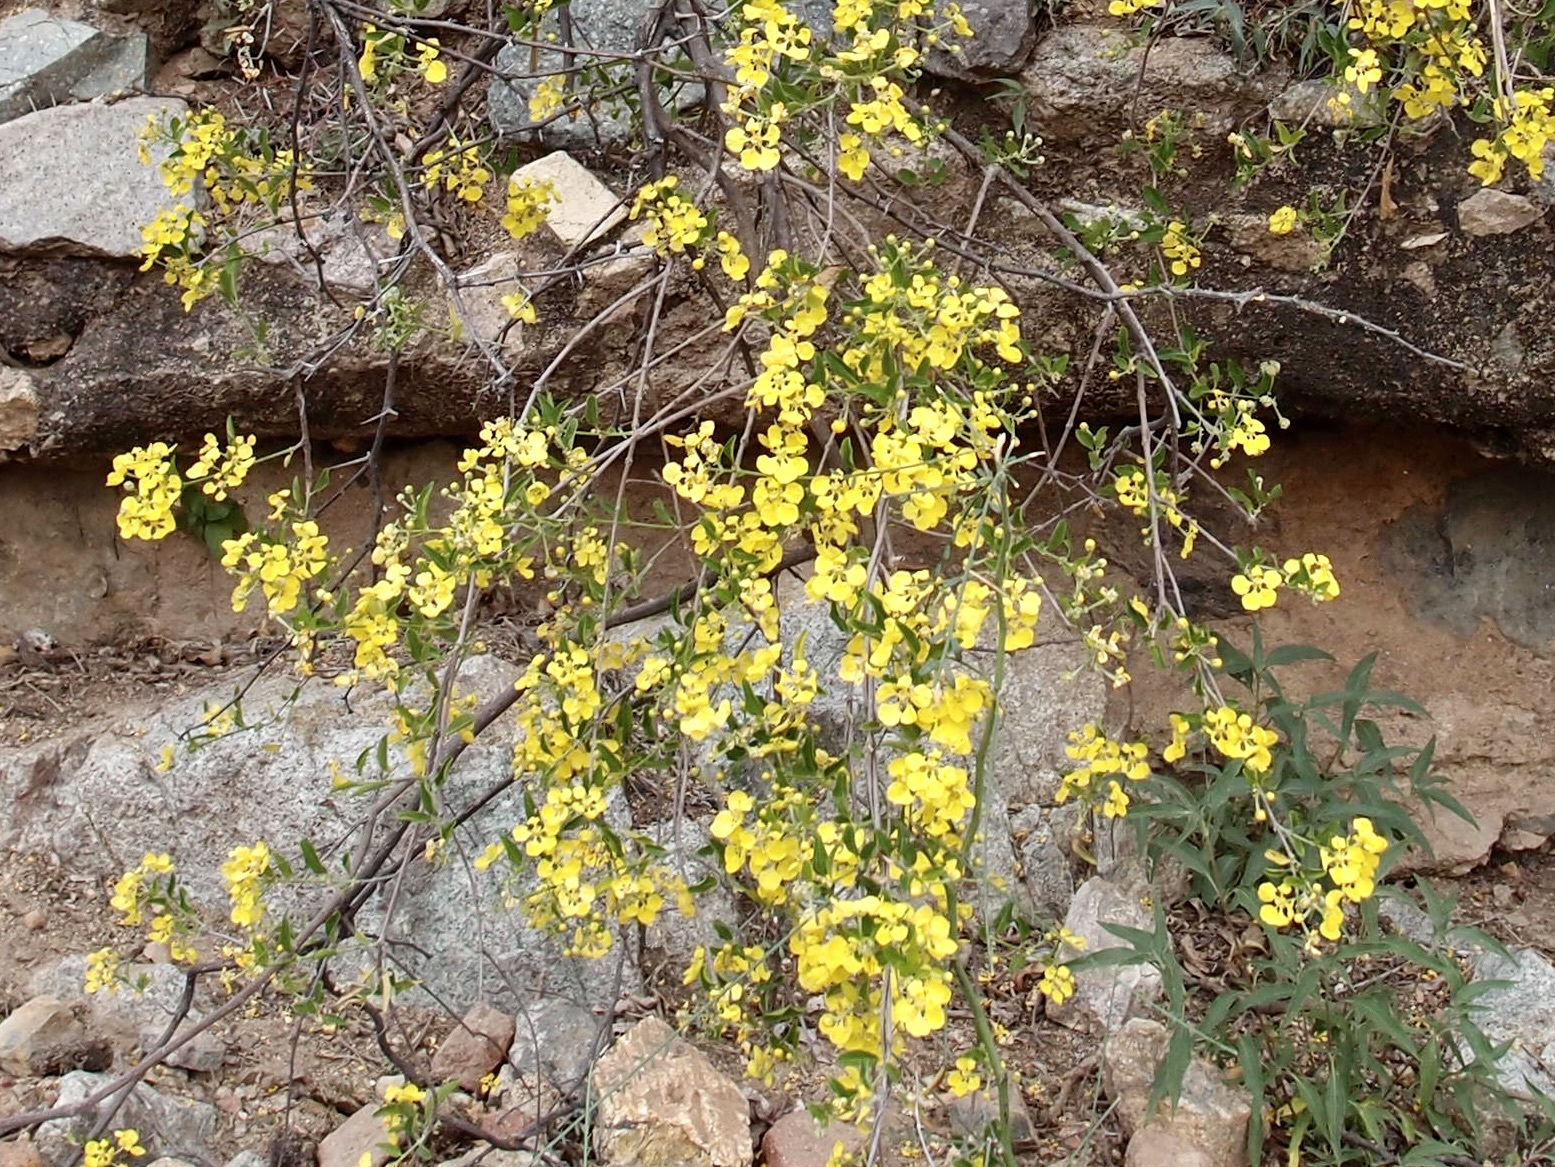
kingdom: Plantae
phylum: Tracheophyta
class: Magnoliopsida
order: Malpighiales
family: Malpighiaceae
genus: Callaeum
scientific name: Callaeum macropterum
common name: Mexican butterfly-vine
